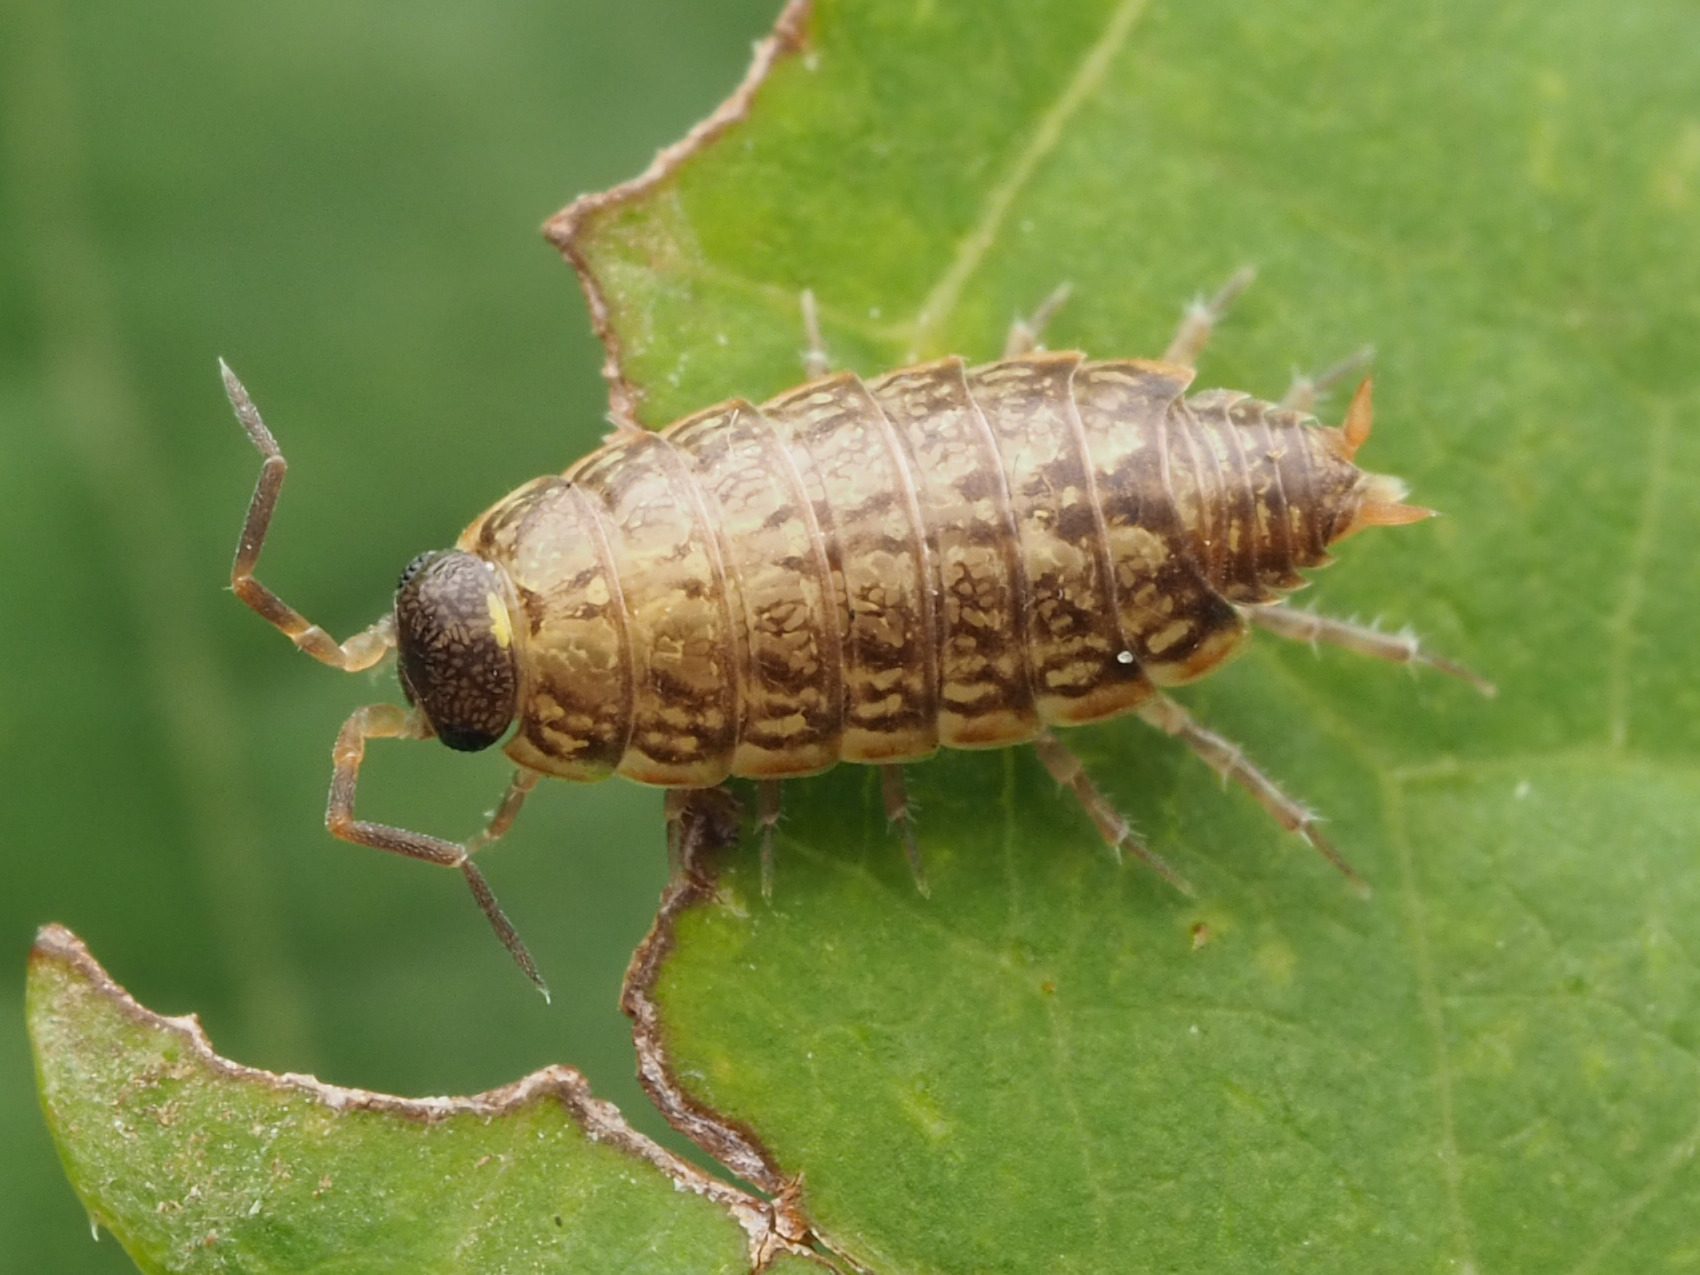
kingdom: Animalia
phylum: Arthropoda
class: Malacostraca
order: Isopoda
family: Philosciidae
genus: Philoscia
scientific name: Philoscia muscorum
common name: Common striped woodlouse
